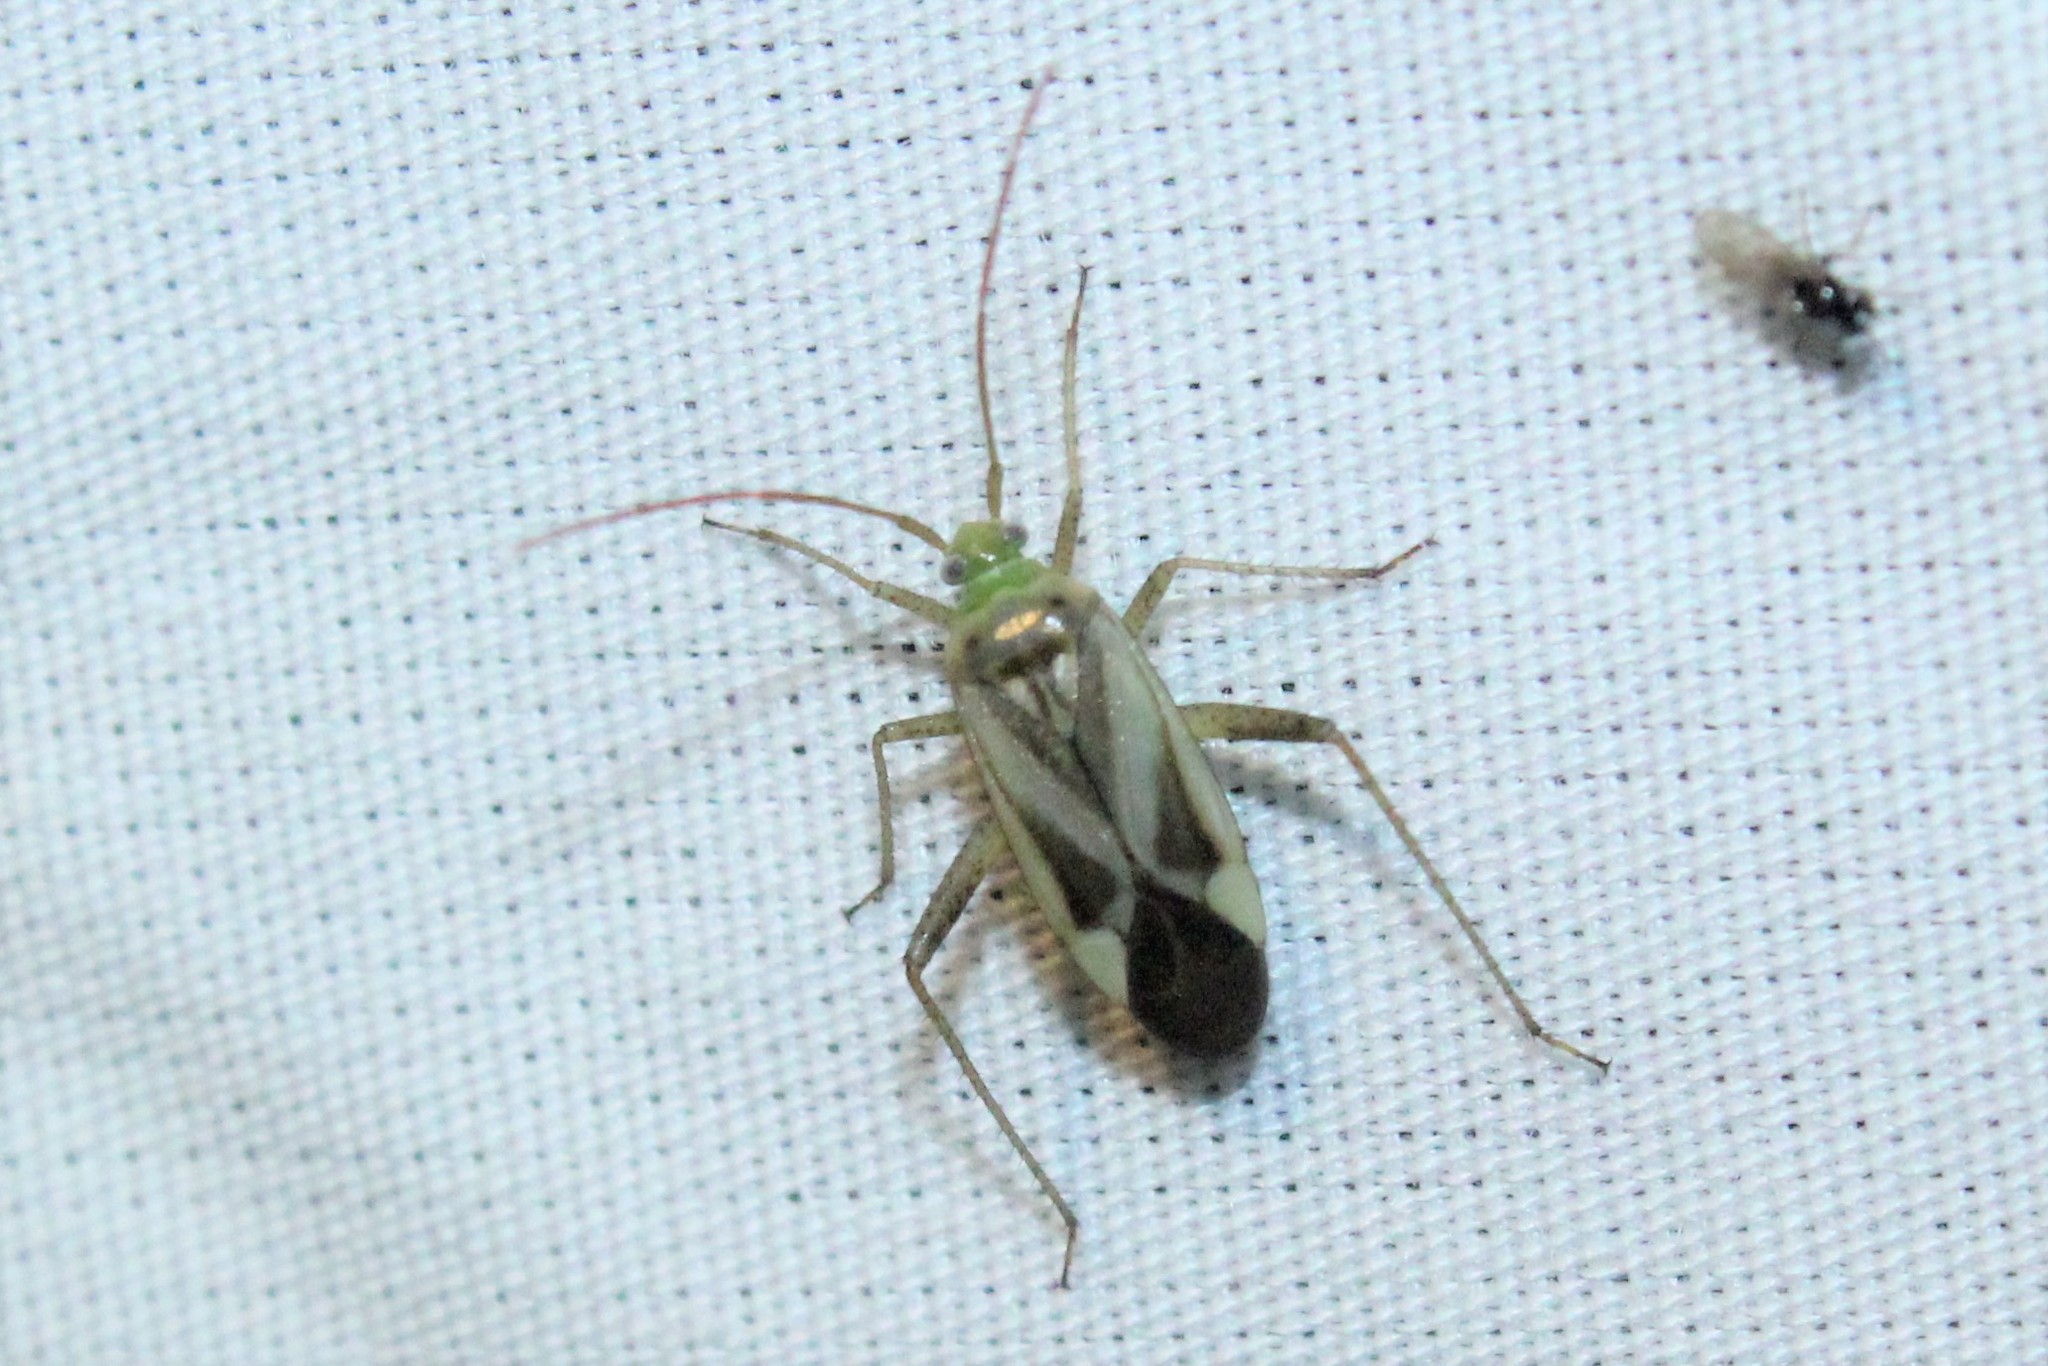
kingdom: Animalia
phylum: Arthropoda
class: Insecta
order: Hemiptera
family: Miridae
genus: Adelphocoris
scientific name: Adelphocoris lineolatus
